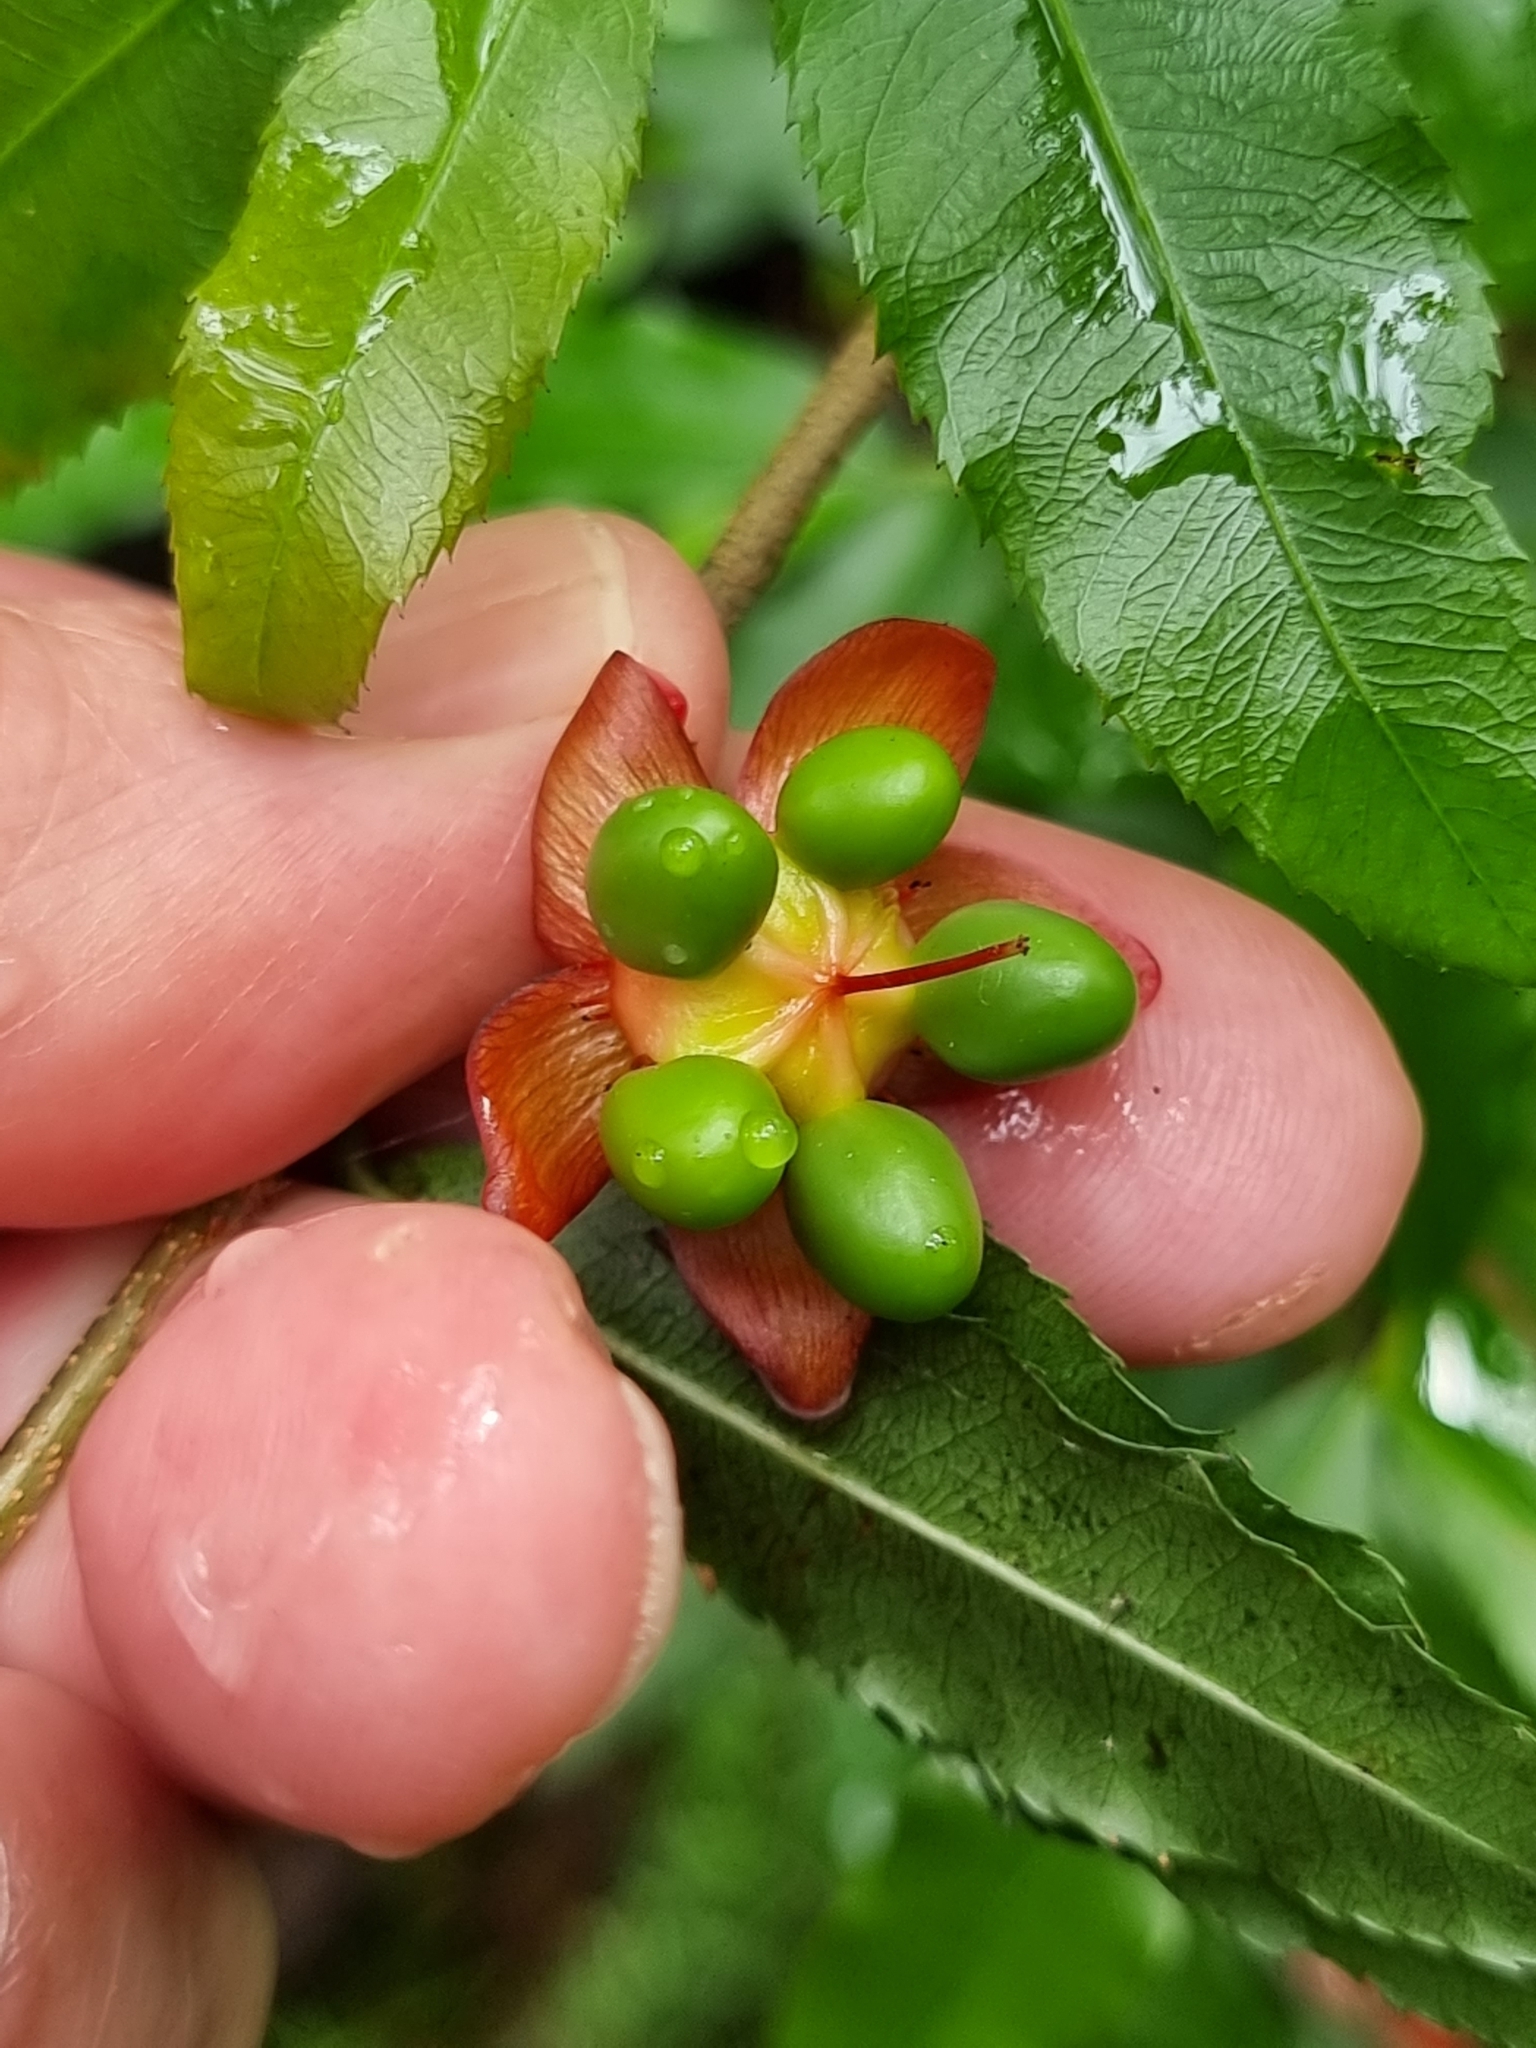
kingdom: Plantae
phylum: Tracheophyta
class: Magnoliopsida
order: Malpighiales
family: Ochnaceae
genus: Ochna
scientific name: Ochna serrulata
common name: Mickey mouse plant
